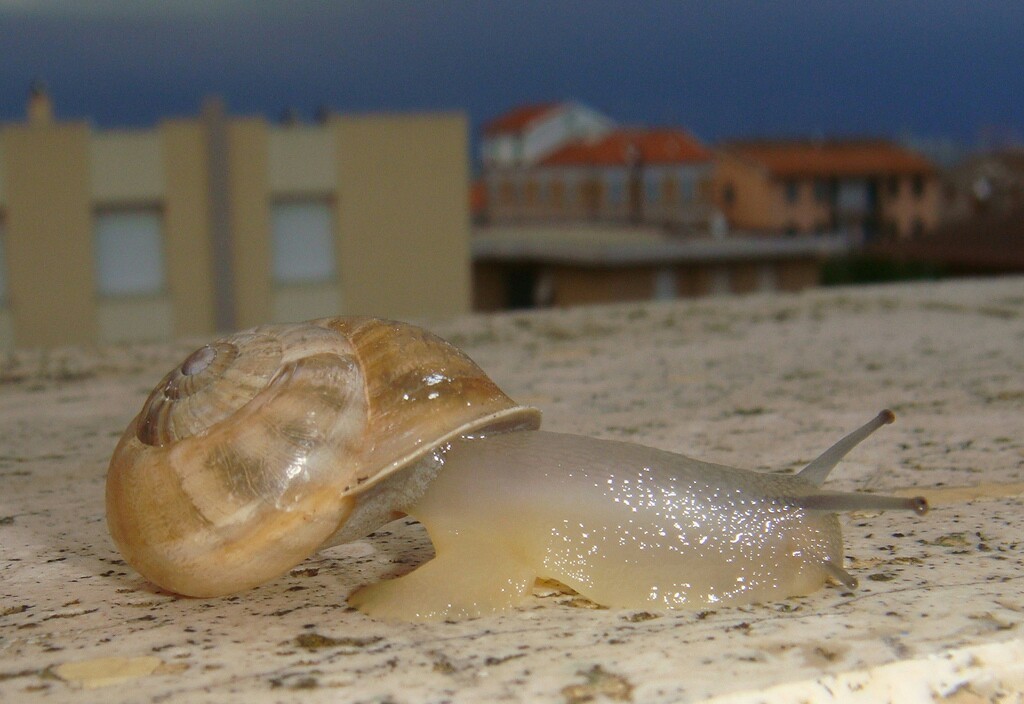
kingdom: Animalia
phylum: Mollusca
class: Gastropoda
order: Stylommatophora
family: Helicidae
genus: Eobania
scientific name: Eobania vermiculata
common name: Chocolateband snail
